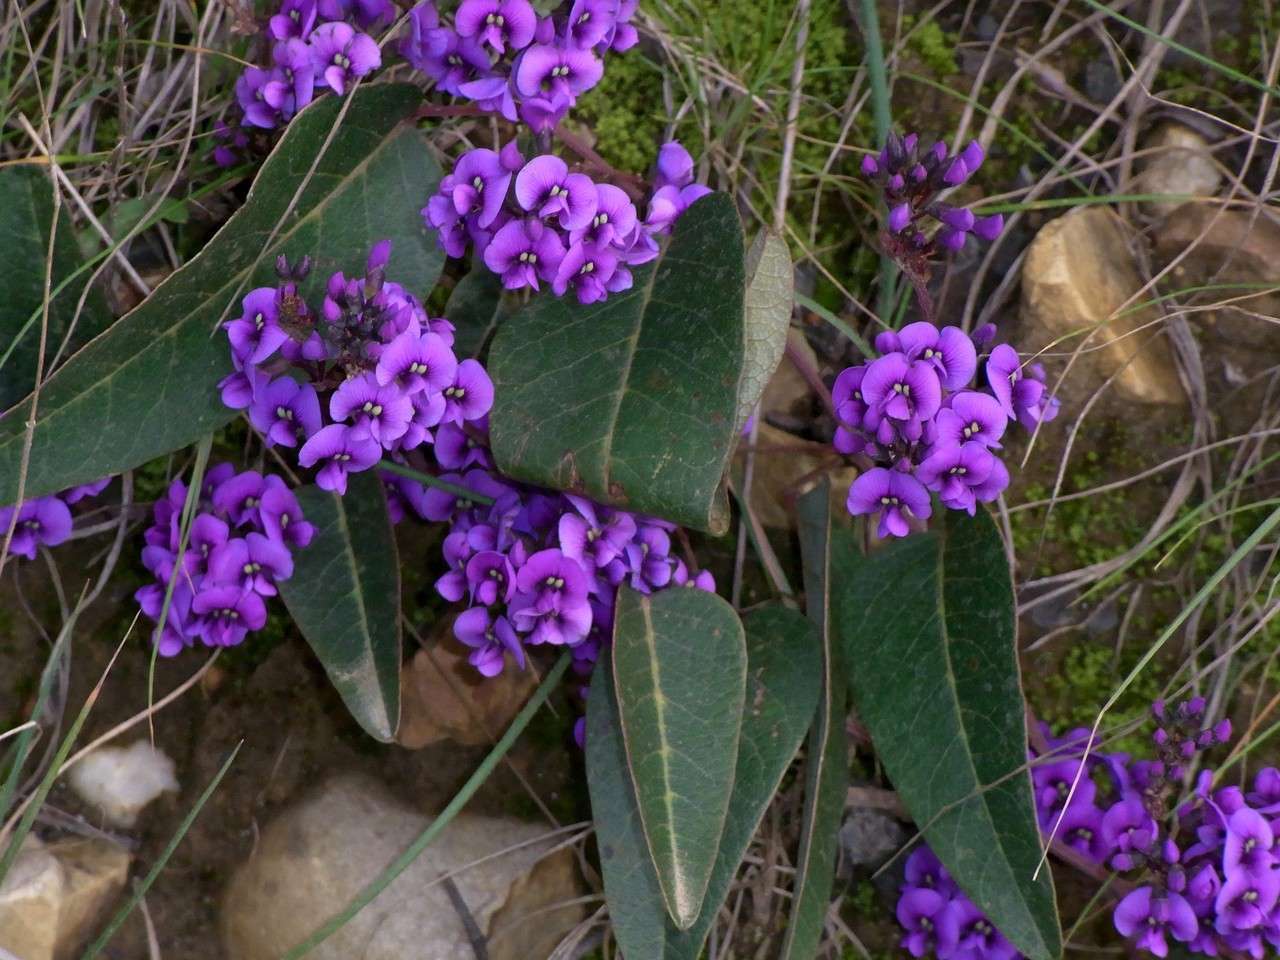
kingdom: Plantae
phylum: Tracheophyta
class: Magnoliopsida
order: Fabales
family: Fabaceae
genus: Hardenbergia
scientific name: Hardenbergia violacea
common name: Coral-pea
